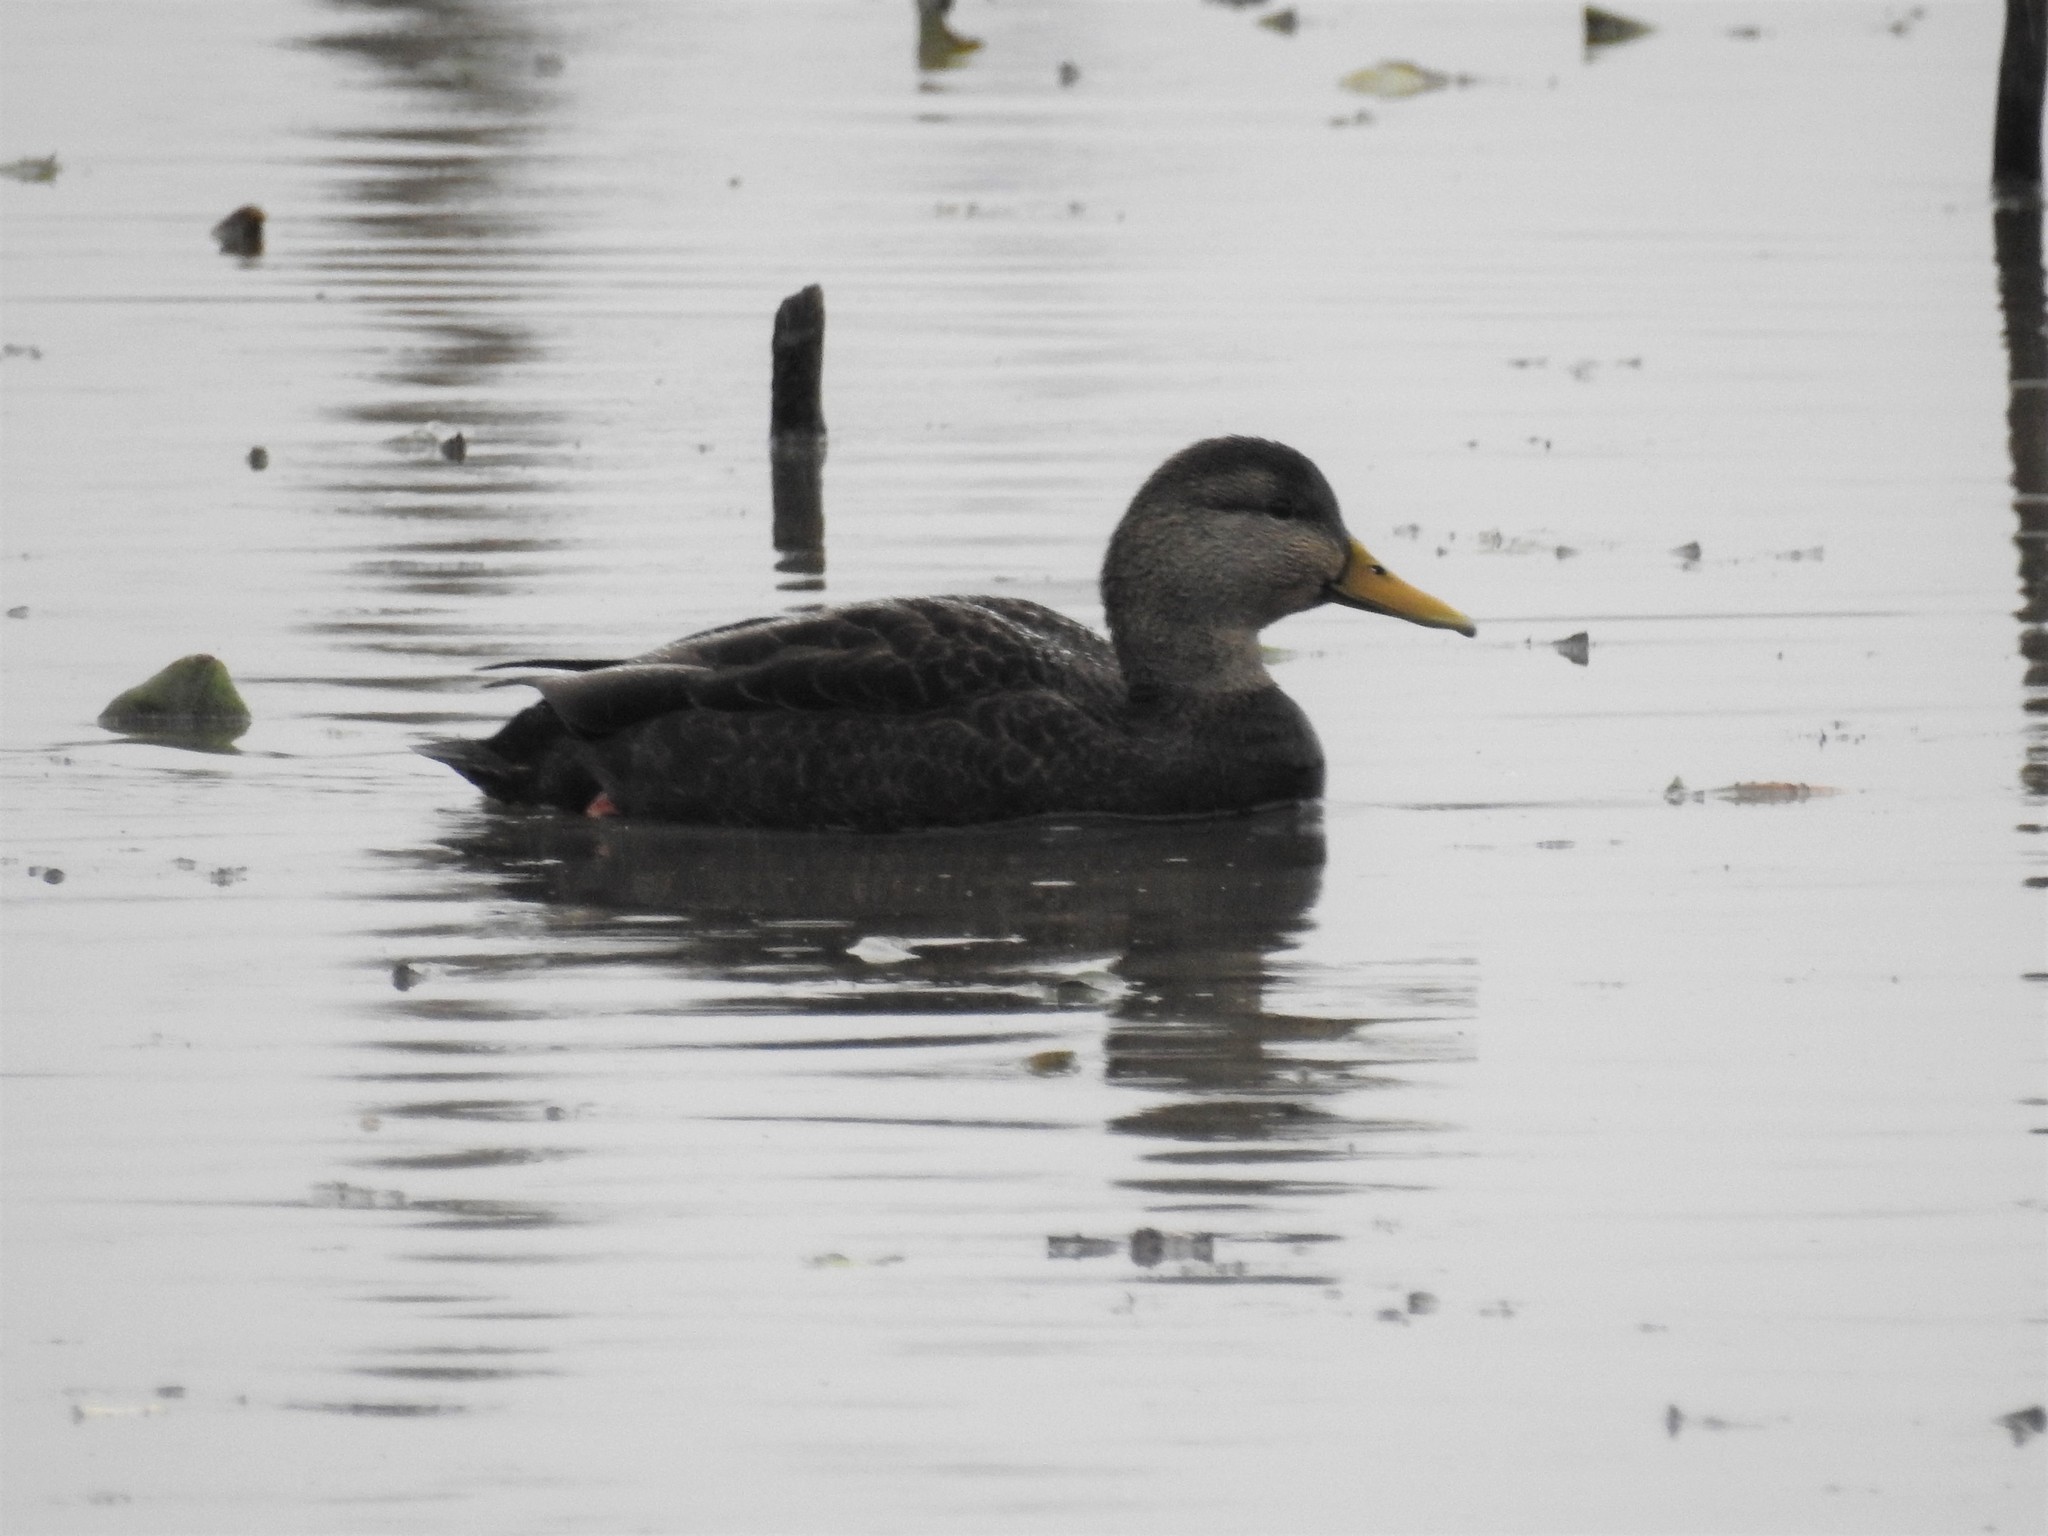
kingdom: Animalia
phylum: Chordata
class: Aves
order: Anseriformes
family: Anatidae
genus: Anas
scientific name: Anas rubripes
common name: American black duck
